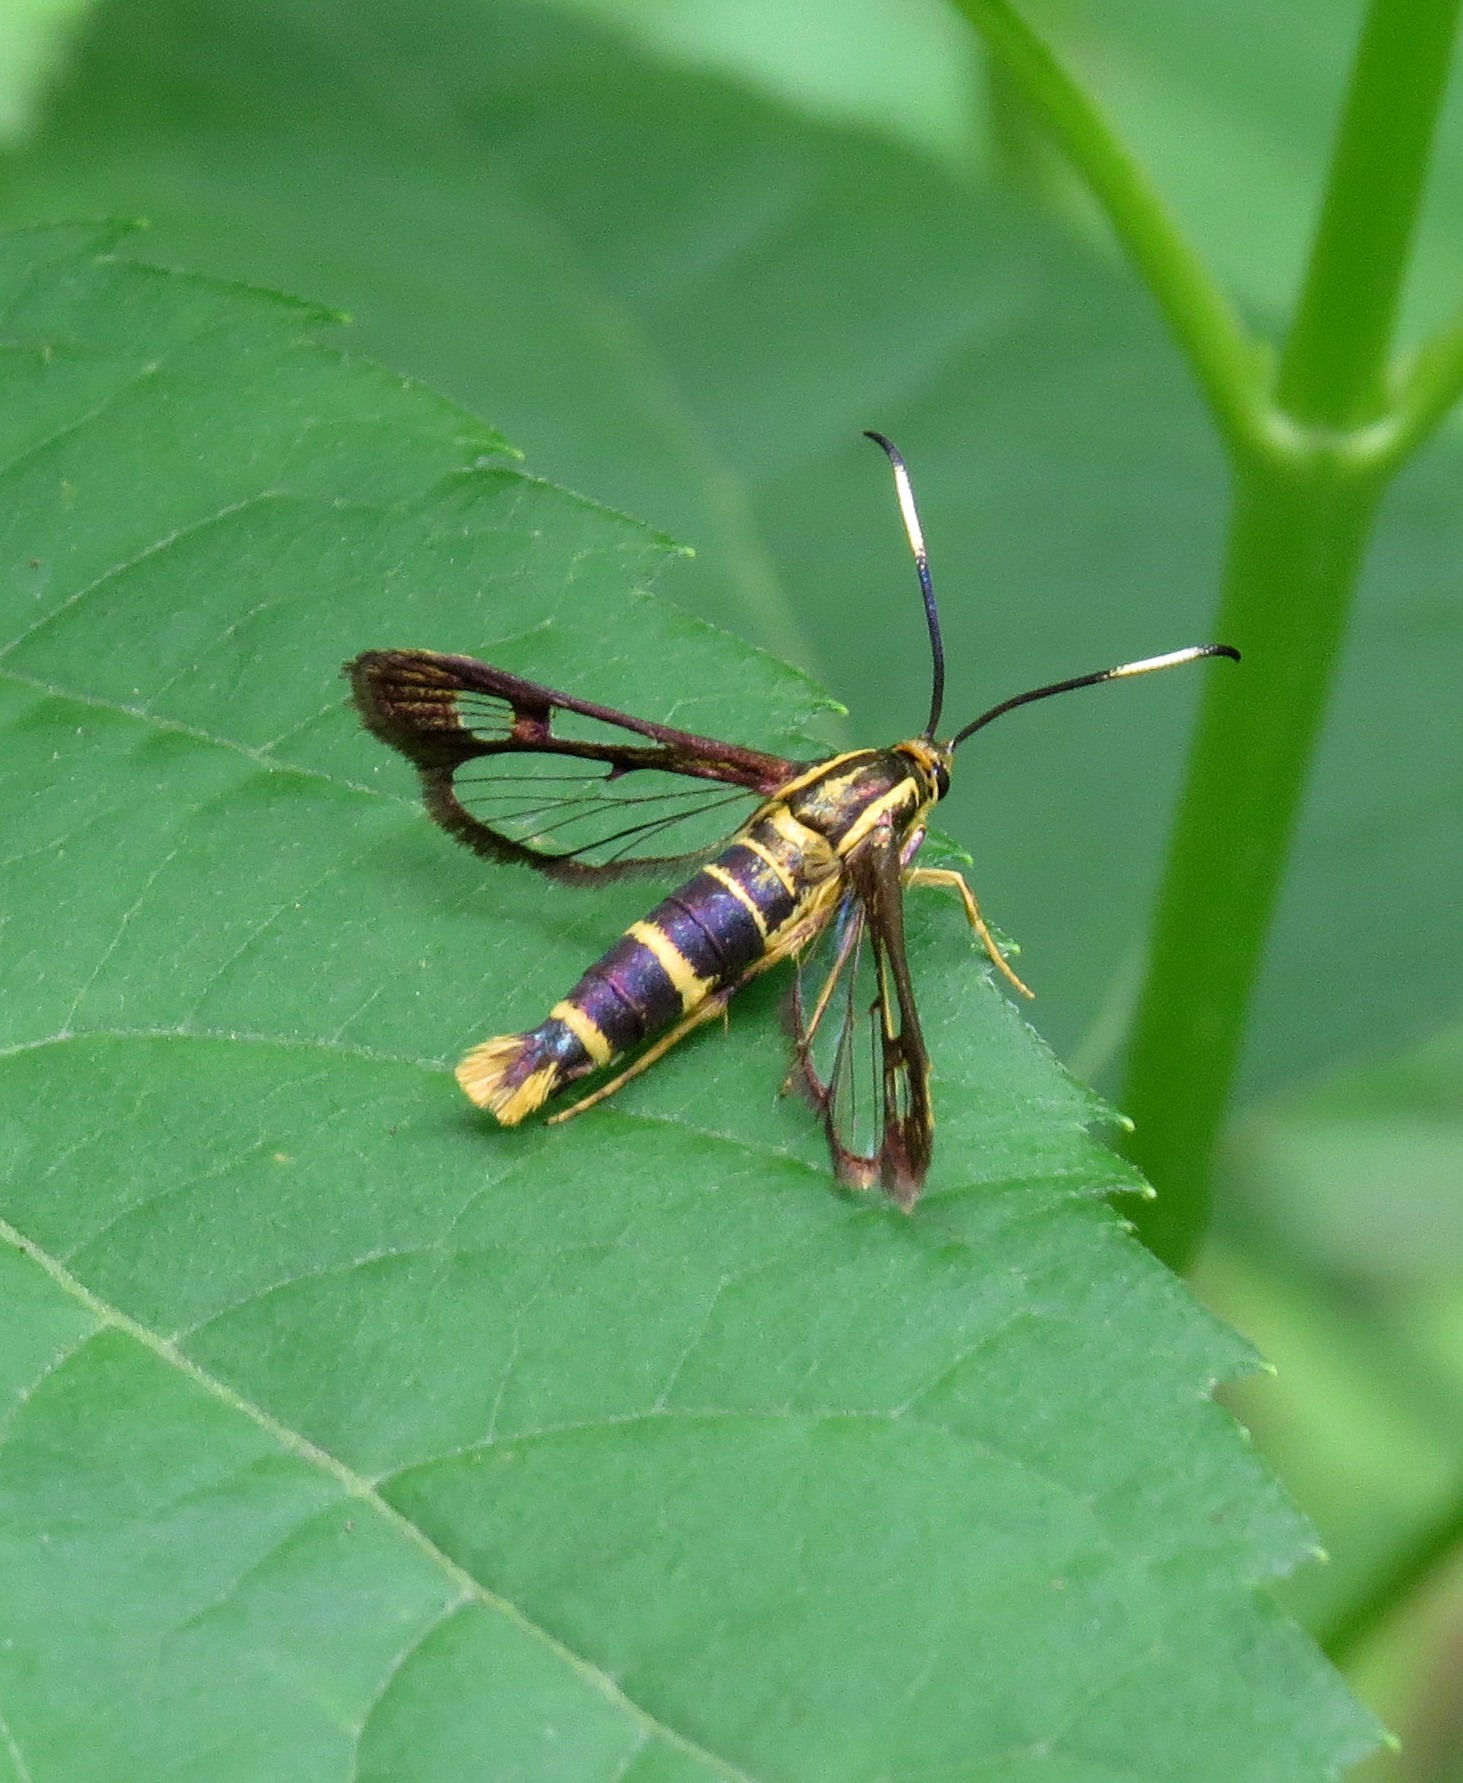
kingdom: Animalia
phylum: Arthropoda
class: Insecta
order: Lepidoptera
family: Sesiidae
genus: Carmenta
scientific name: Carmenta bassiformis
